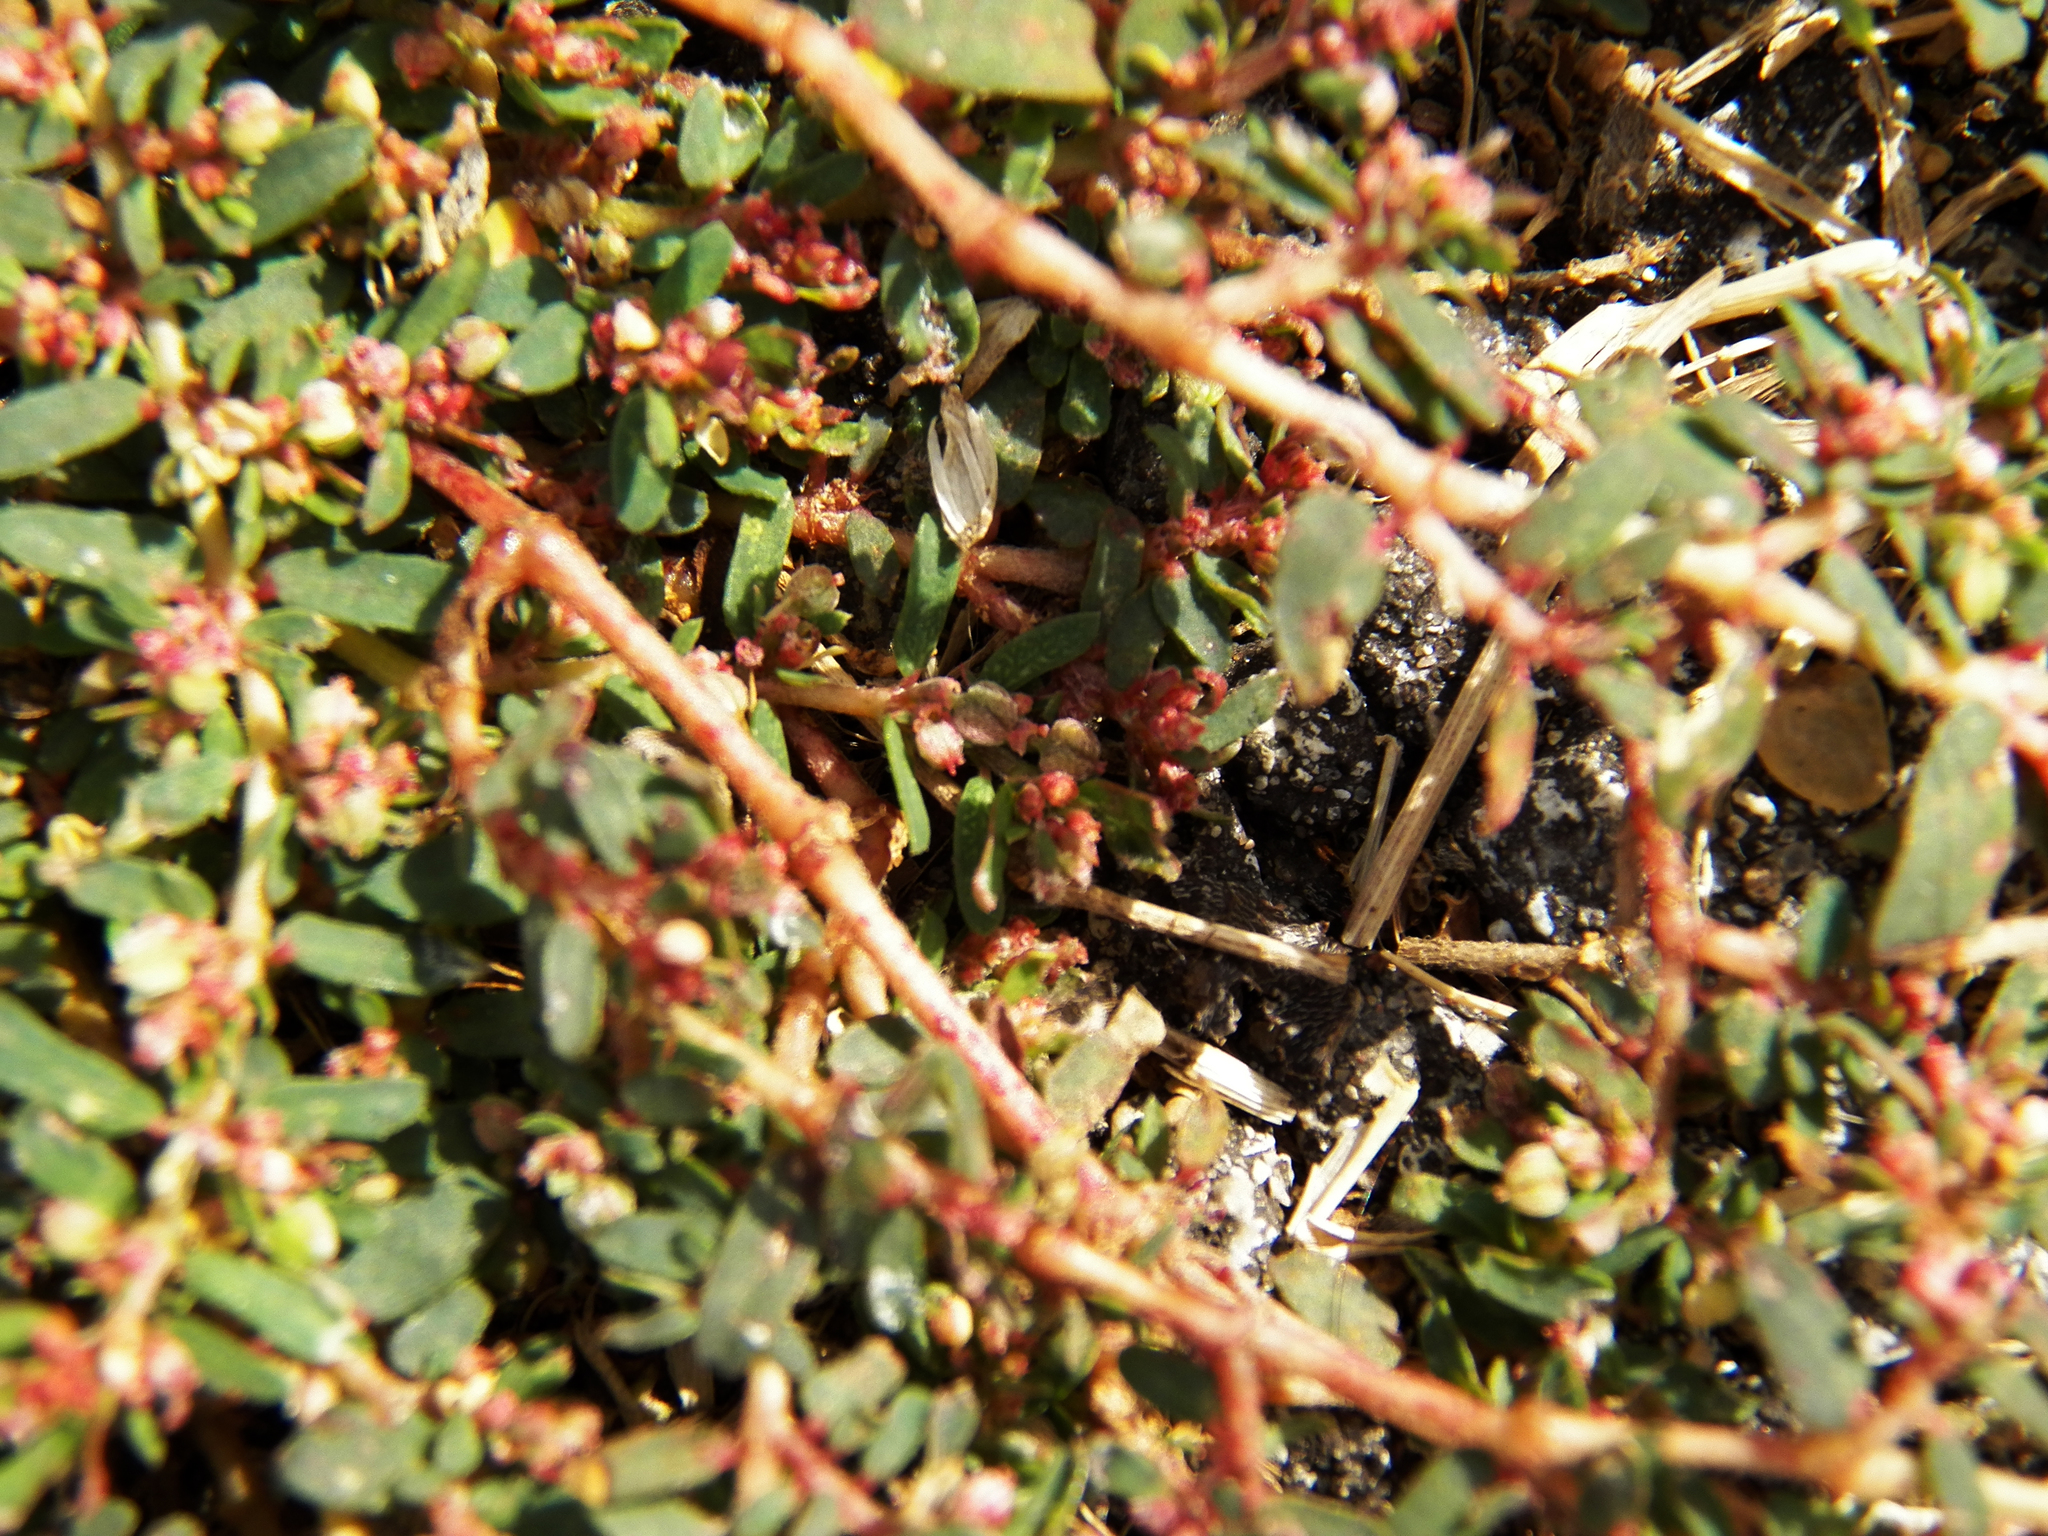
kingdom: Plantae
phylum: Tracheophyta
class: Magnoliopsida
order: Malpighiales
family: Euphorbiaceae
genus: Euphorbia
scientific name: Euphorbia maculata
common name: Spotted spurge
